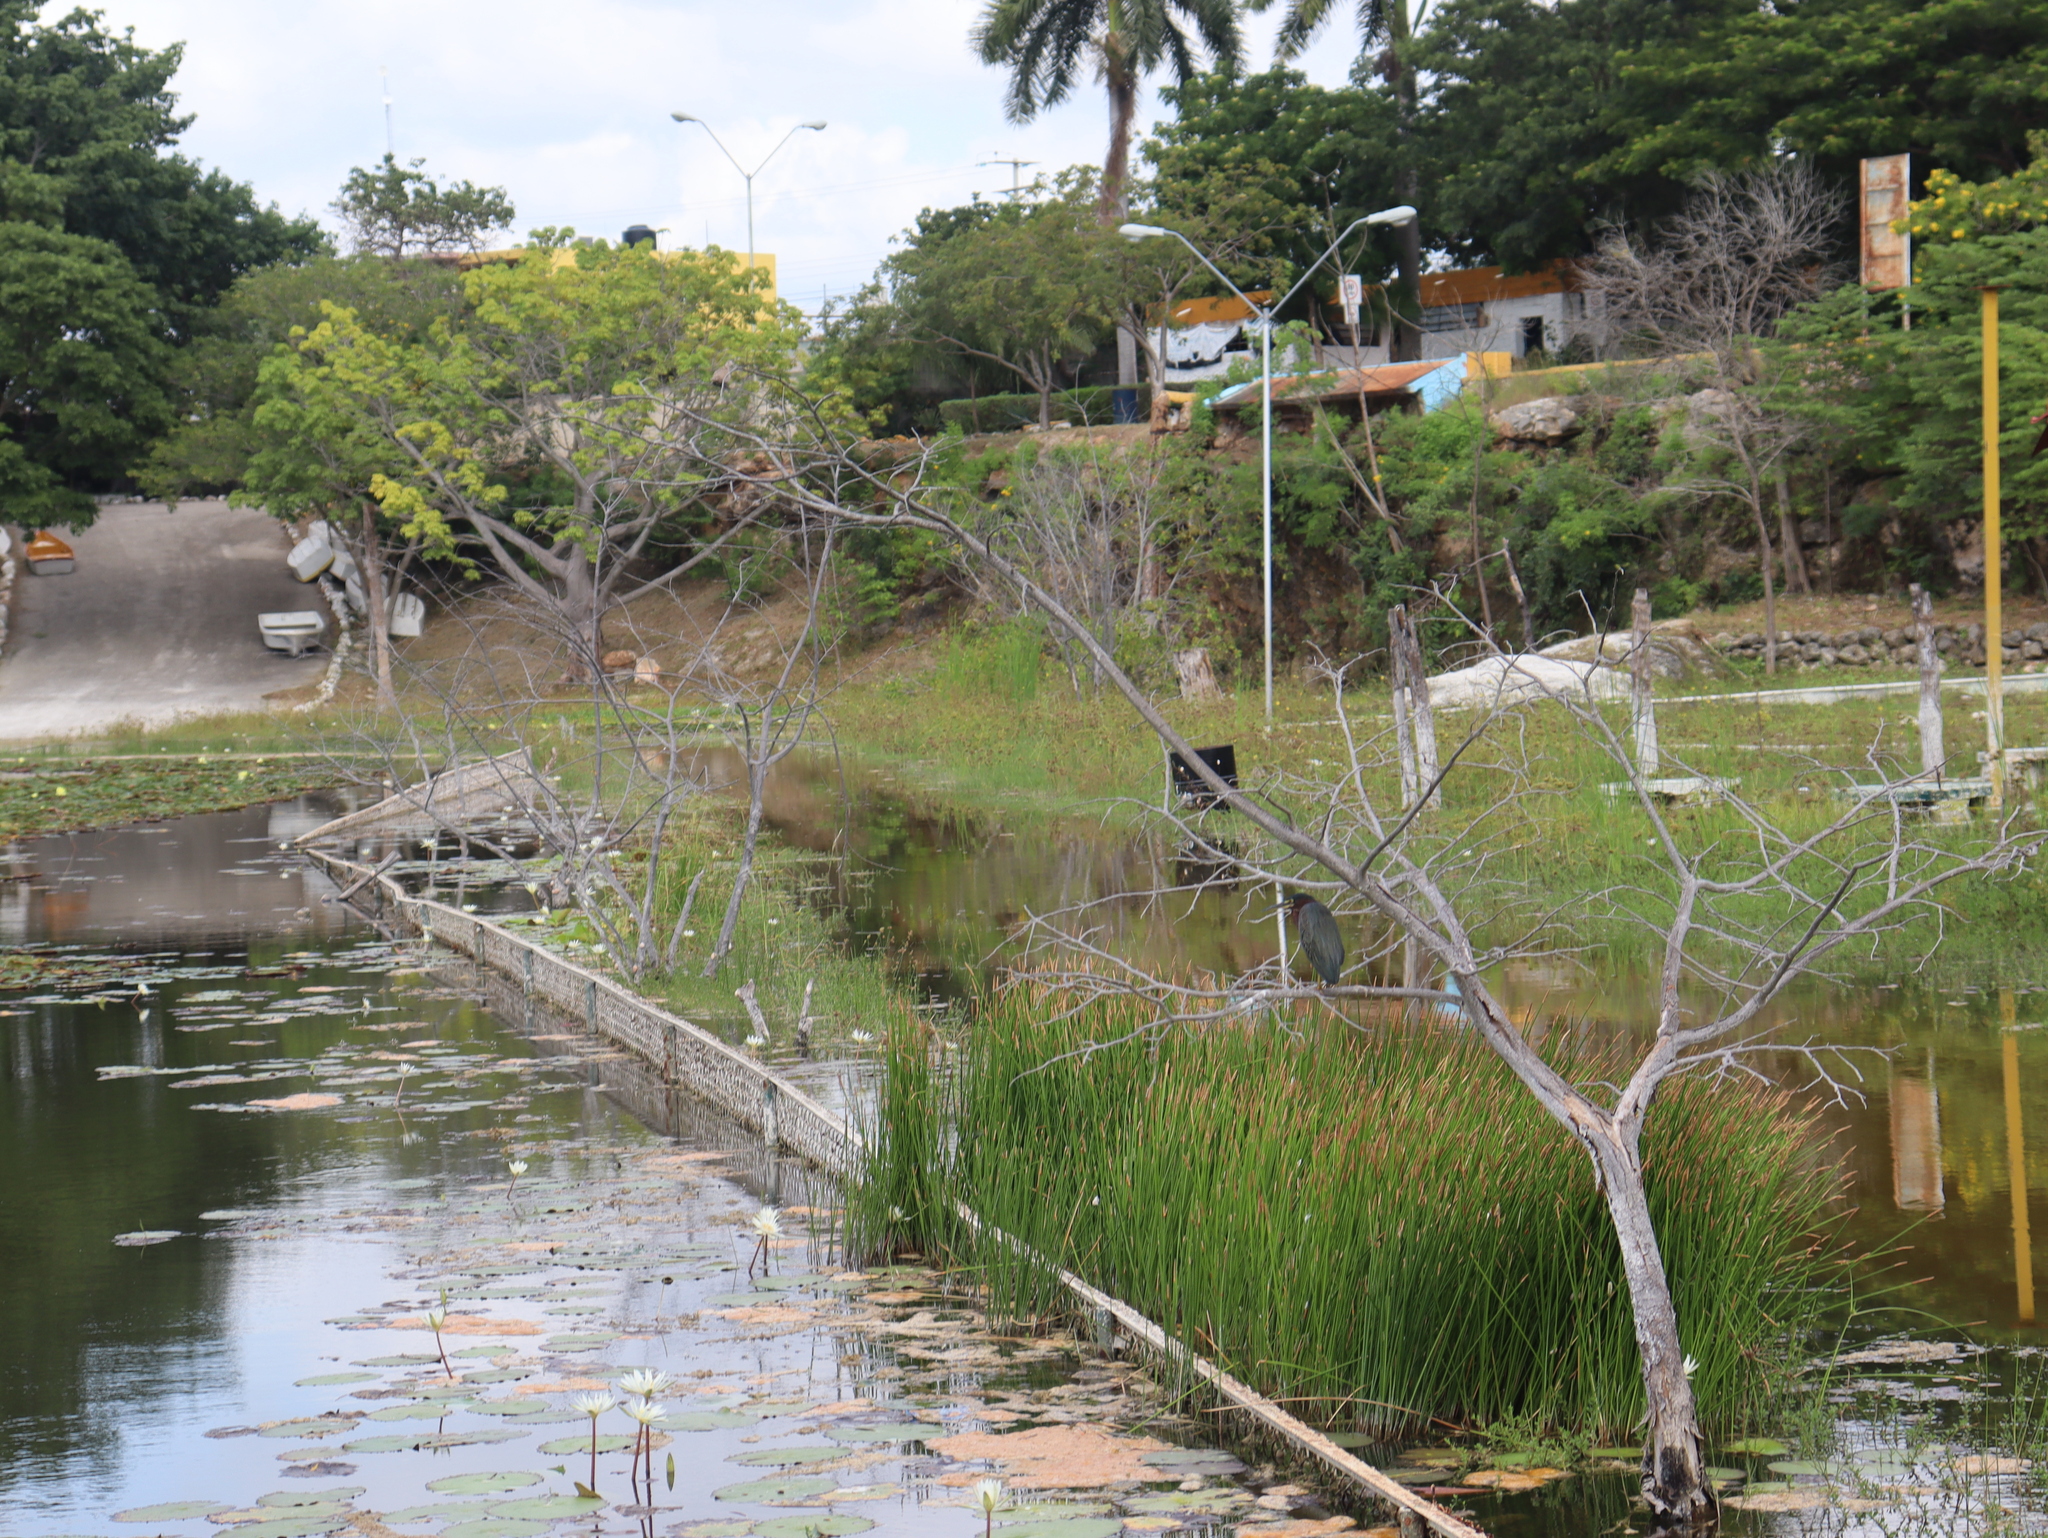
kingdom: Animalia
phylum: Chordata
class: Aves
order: Pelecaniformes
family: Ardeidae
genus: Butorides
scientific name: Butorides virescens
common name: Green heron
